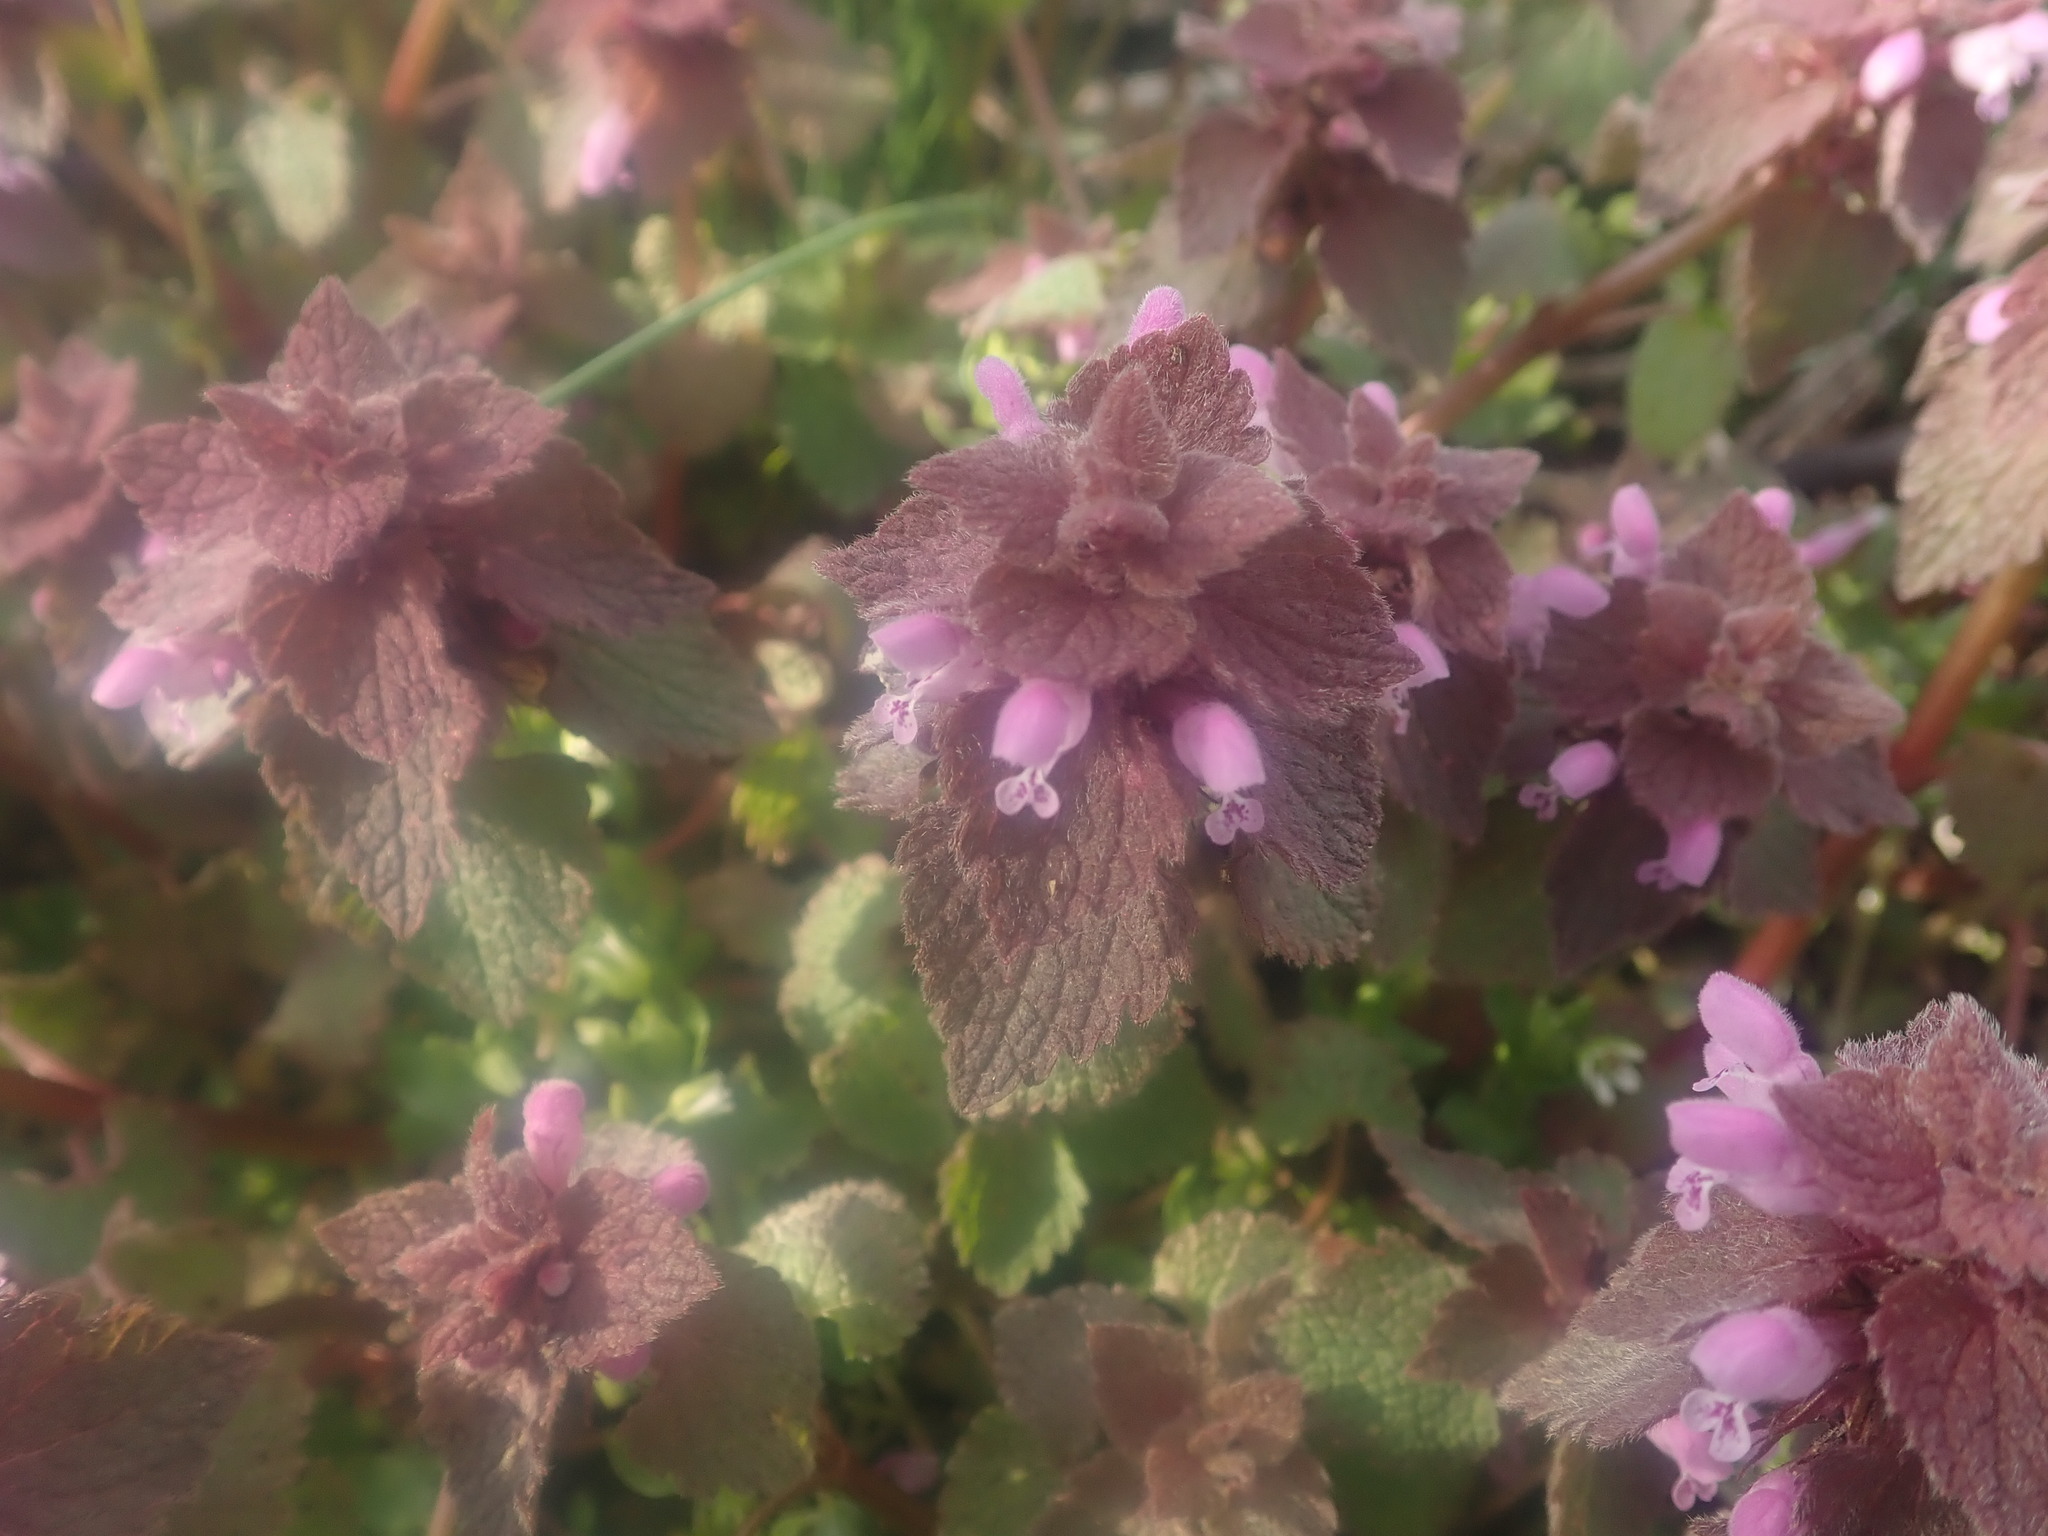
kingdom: Plantae
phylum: Tracheophyta
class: Magnoliopsida
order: Lamiales
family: Lamiaceae
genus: Lamium
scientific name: Lamium purpureum
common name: Red dead-nettle
